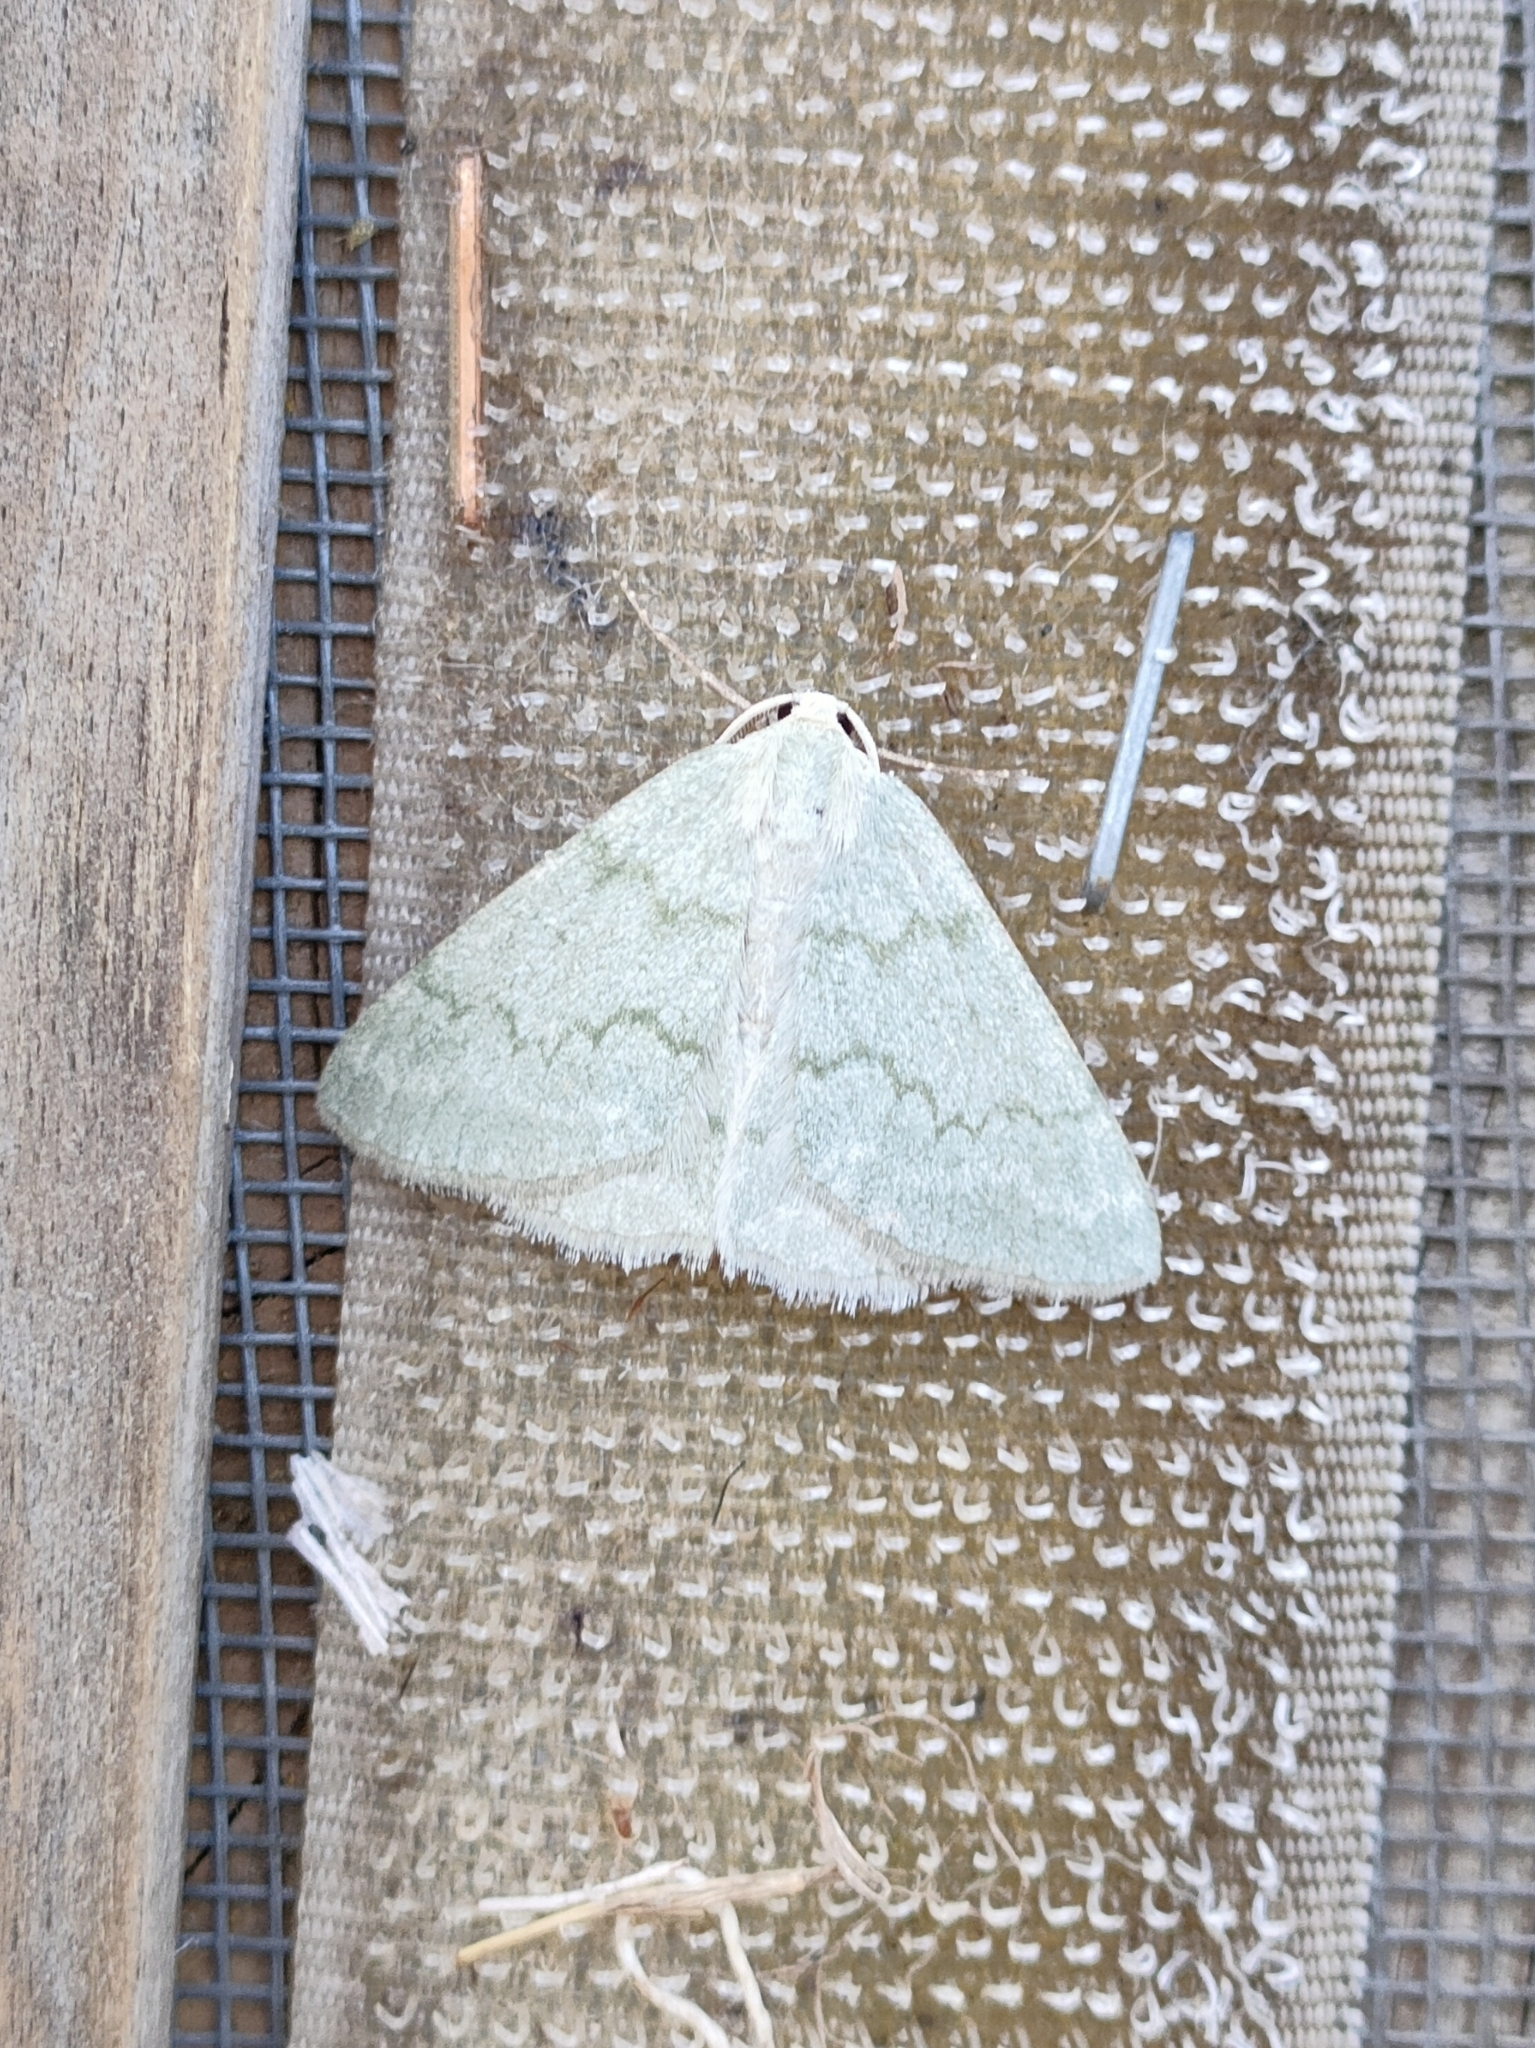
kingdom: Animalia
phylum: Arthropoda
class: Insecta
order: Lepidoptera
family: Geometridae
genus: Pseudoterpna
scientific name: Pseudoterpna pruinata
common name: Grass emerald
